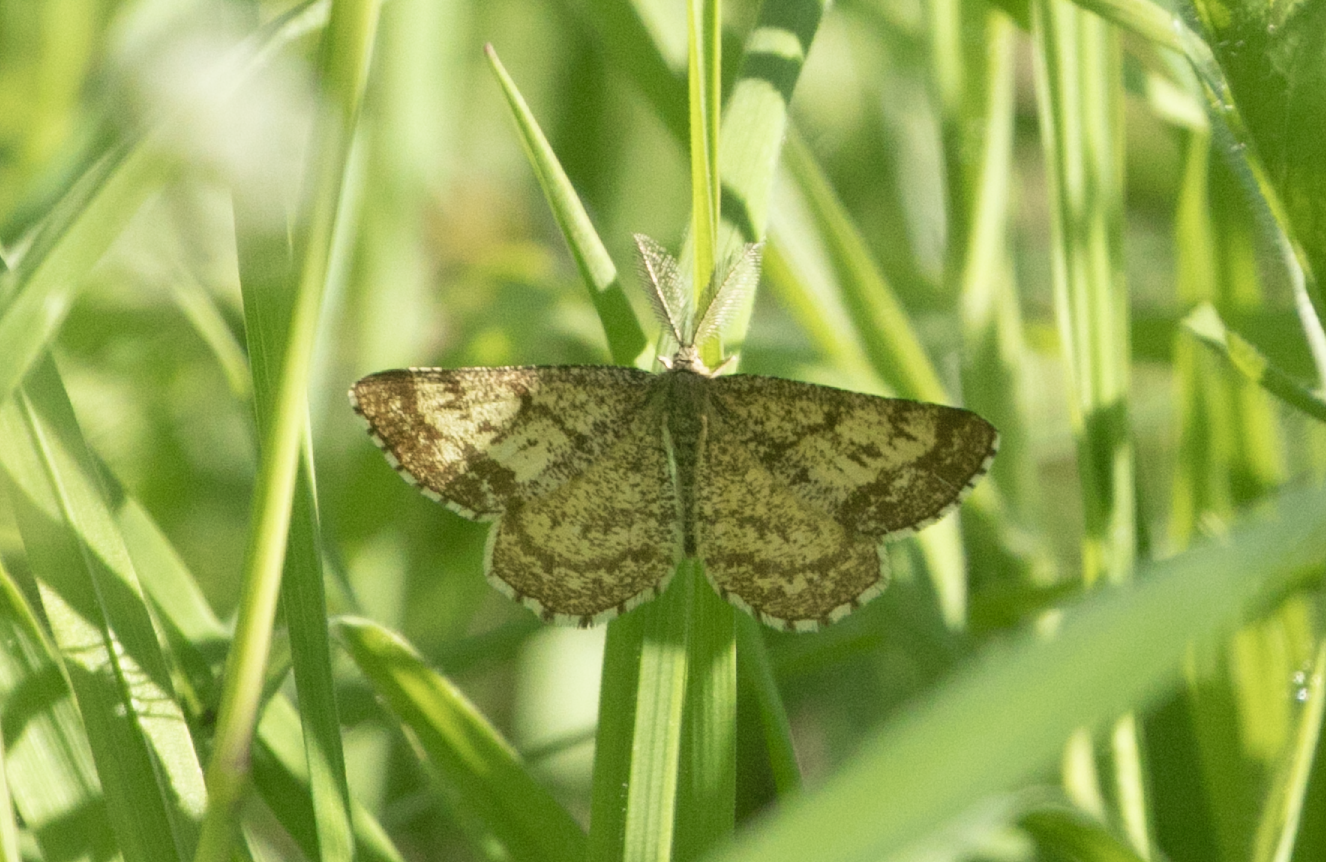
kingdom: Animalia
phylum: Arthropoda
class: Insecta
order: Lepidoptera
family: Geometridae
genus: Ematurga
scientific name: Ematurga atomaria
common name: Common heath
